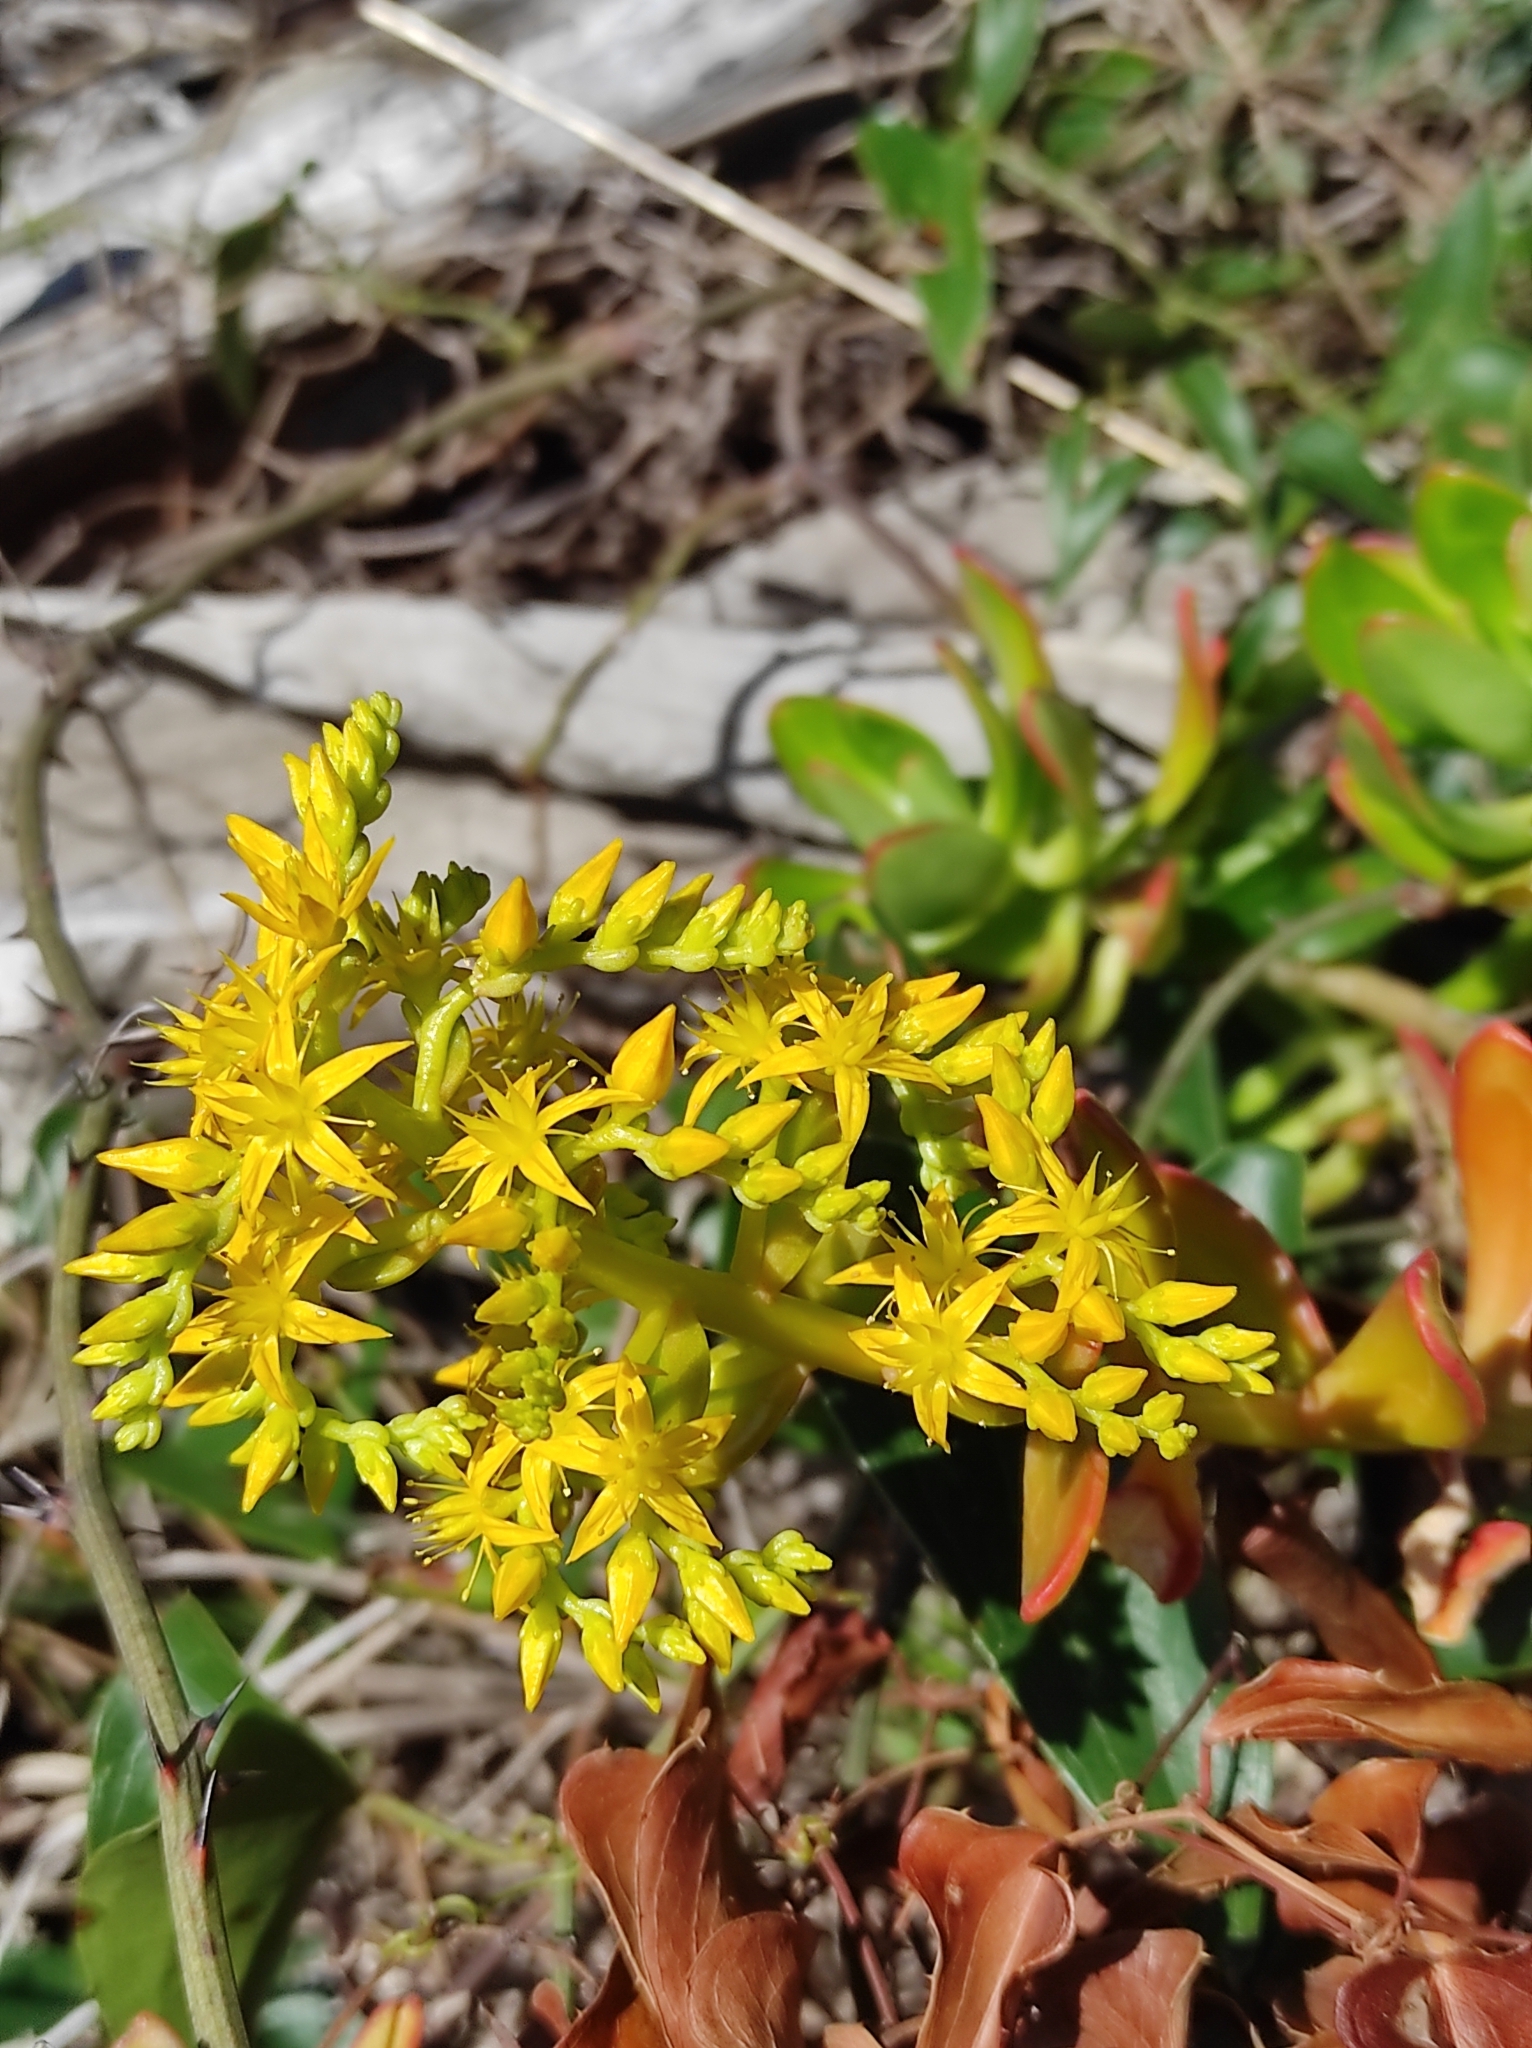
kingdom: Plantae
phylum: Tracheophyta
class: Magnoliopsida
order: Saxifragales
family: Crassulaceae
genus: Sedum
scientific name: Sedum praealtum
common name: Greater mexican-stonecrop
